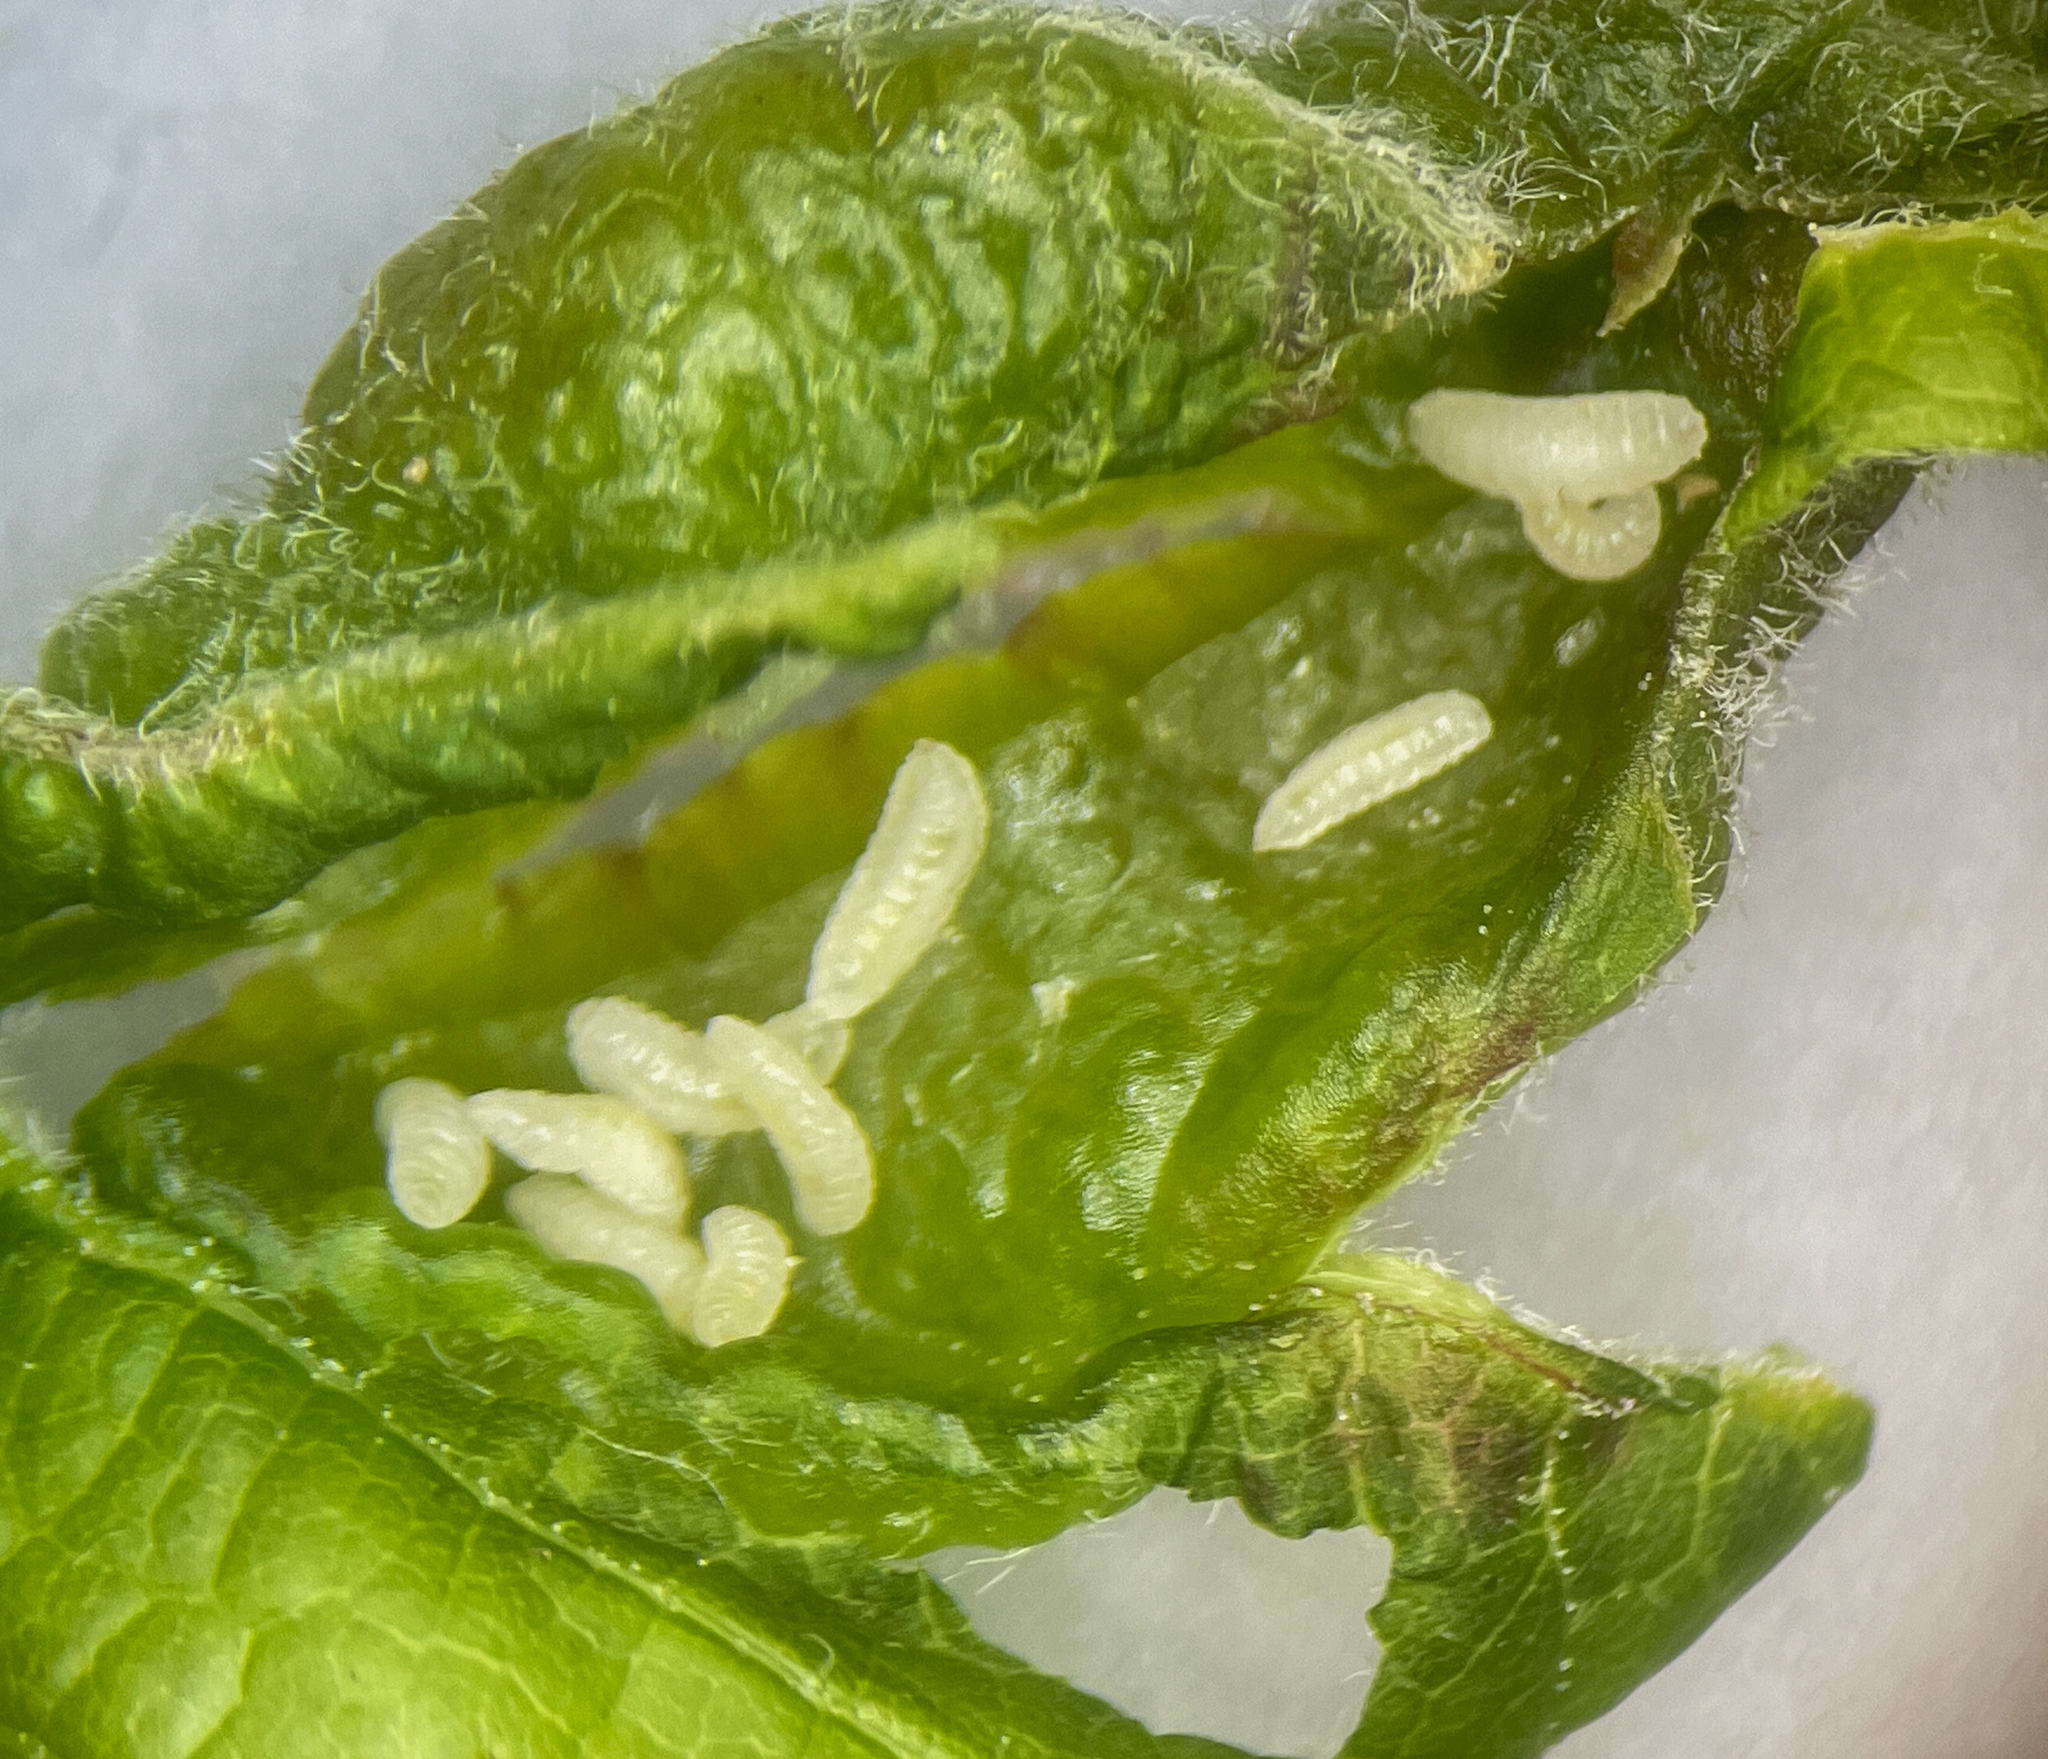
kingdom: Animalia
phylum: Arthropoda
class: Insecta
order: Diptera
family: Cecidomyiidae
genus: Contarinia
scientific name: Contarinia negundinis
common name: Boxelder budgall midge
